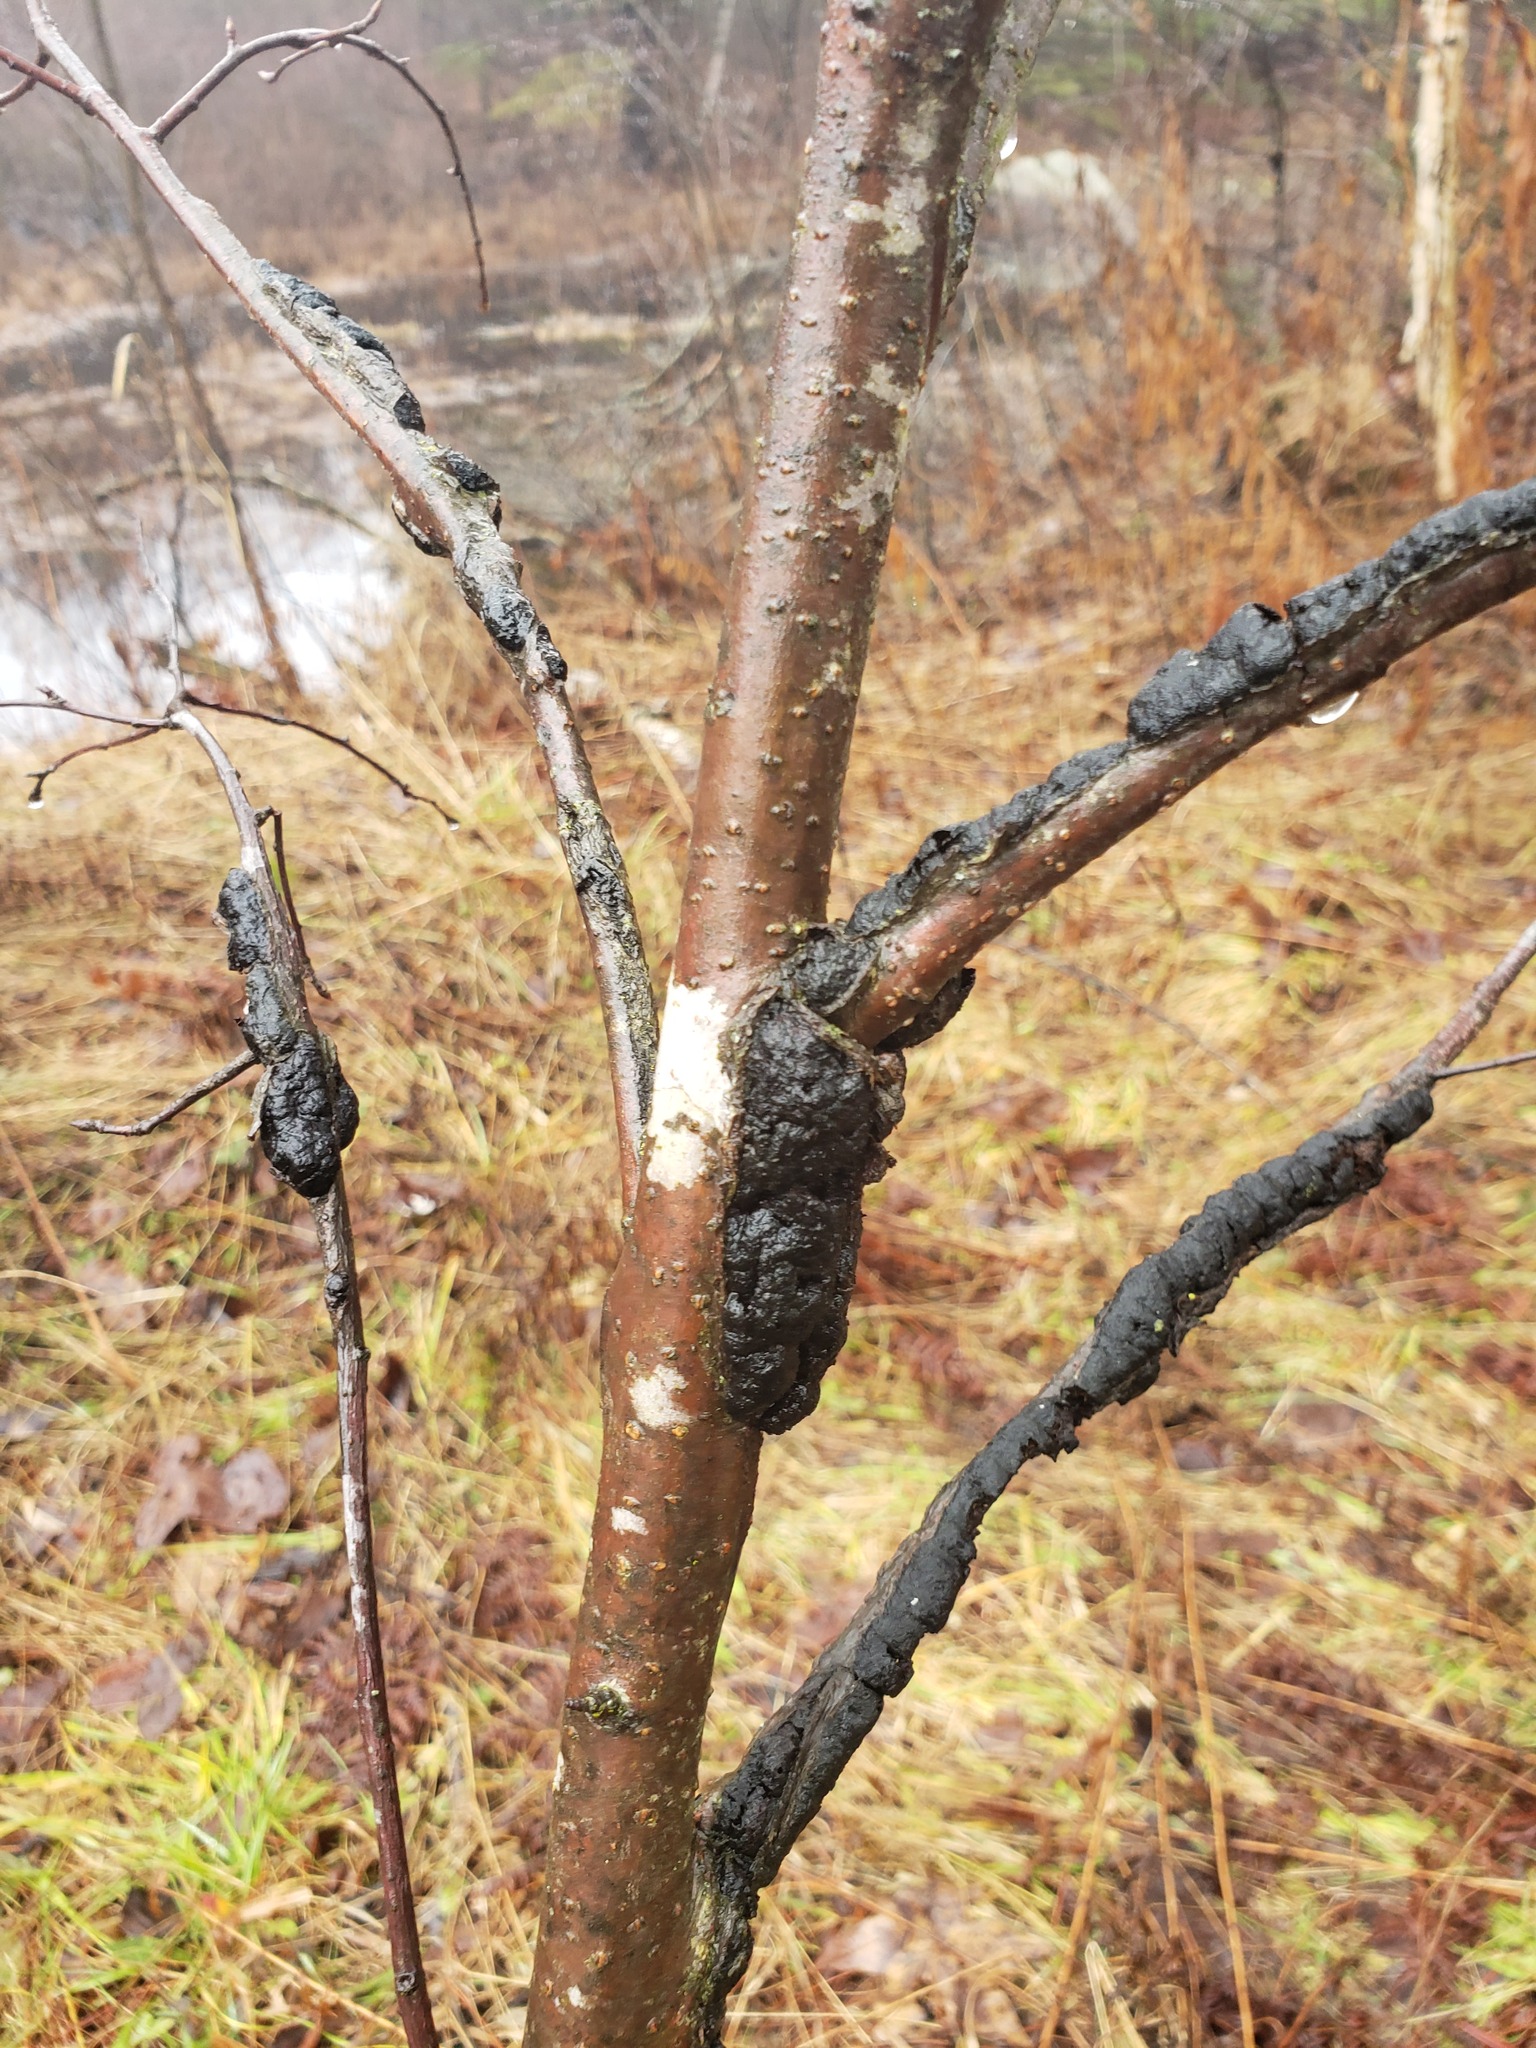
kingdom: Fungi
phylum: Ascomycota
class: Dothideomycetes
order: Venturiales
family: Venturiaceae
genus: Apiosporina
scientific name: Apiosporina morbosa
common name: Black knot
